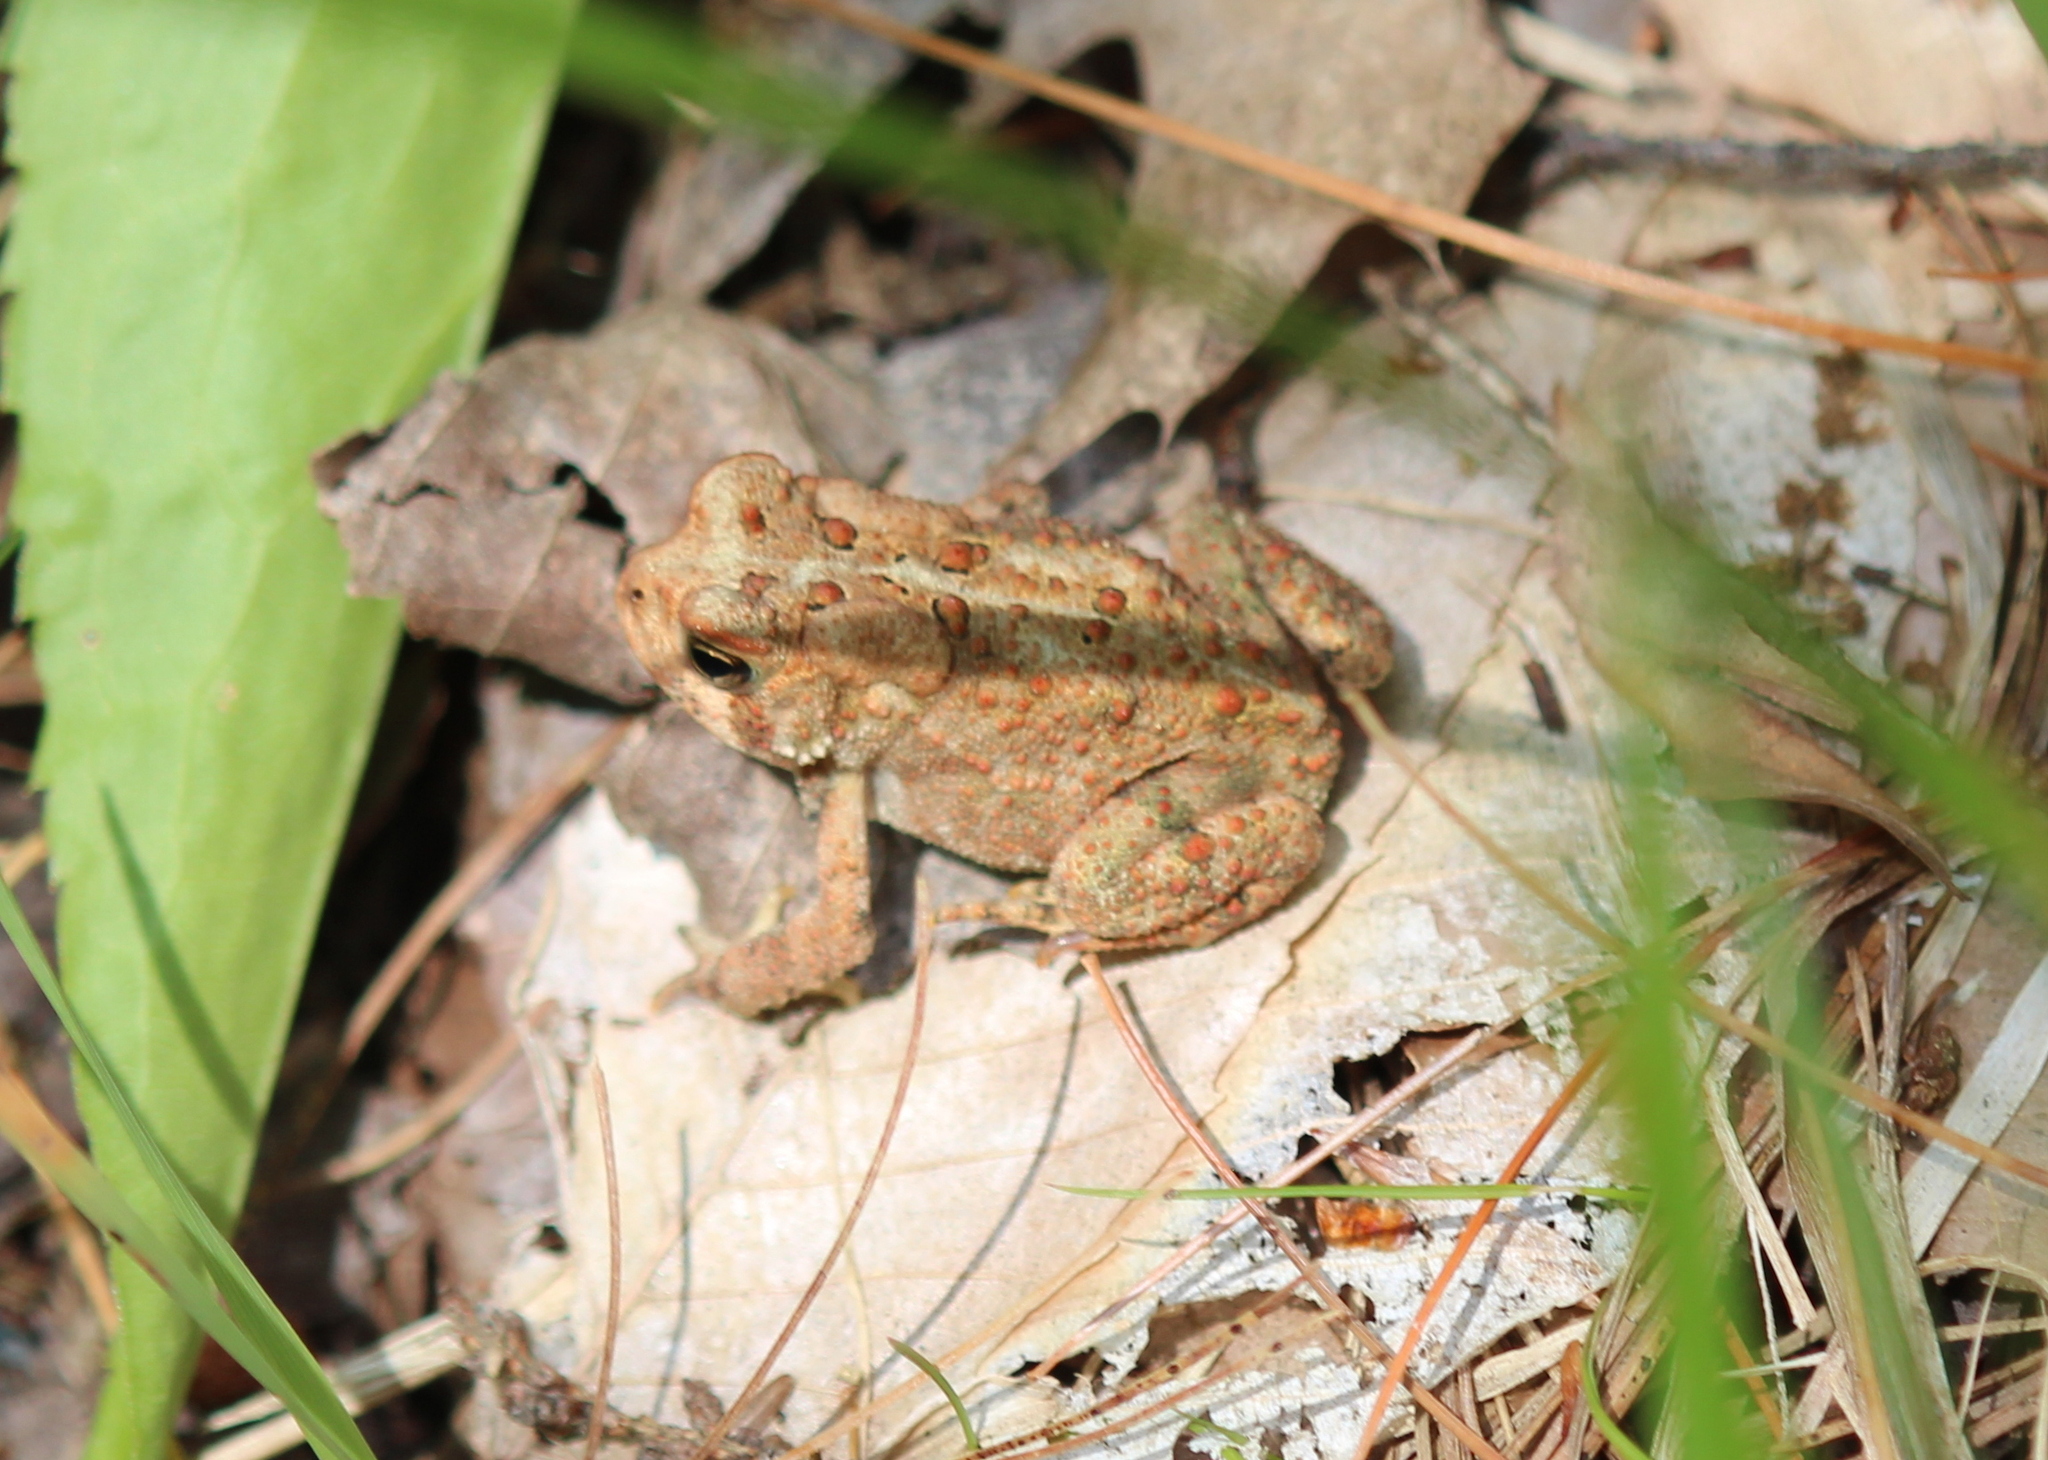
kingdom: Animalia
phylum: Chordata
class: Amphibia
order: Anura
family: Bufonidae
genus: Anaxyrus
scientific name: Anaxyrus americanus
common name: American toad
